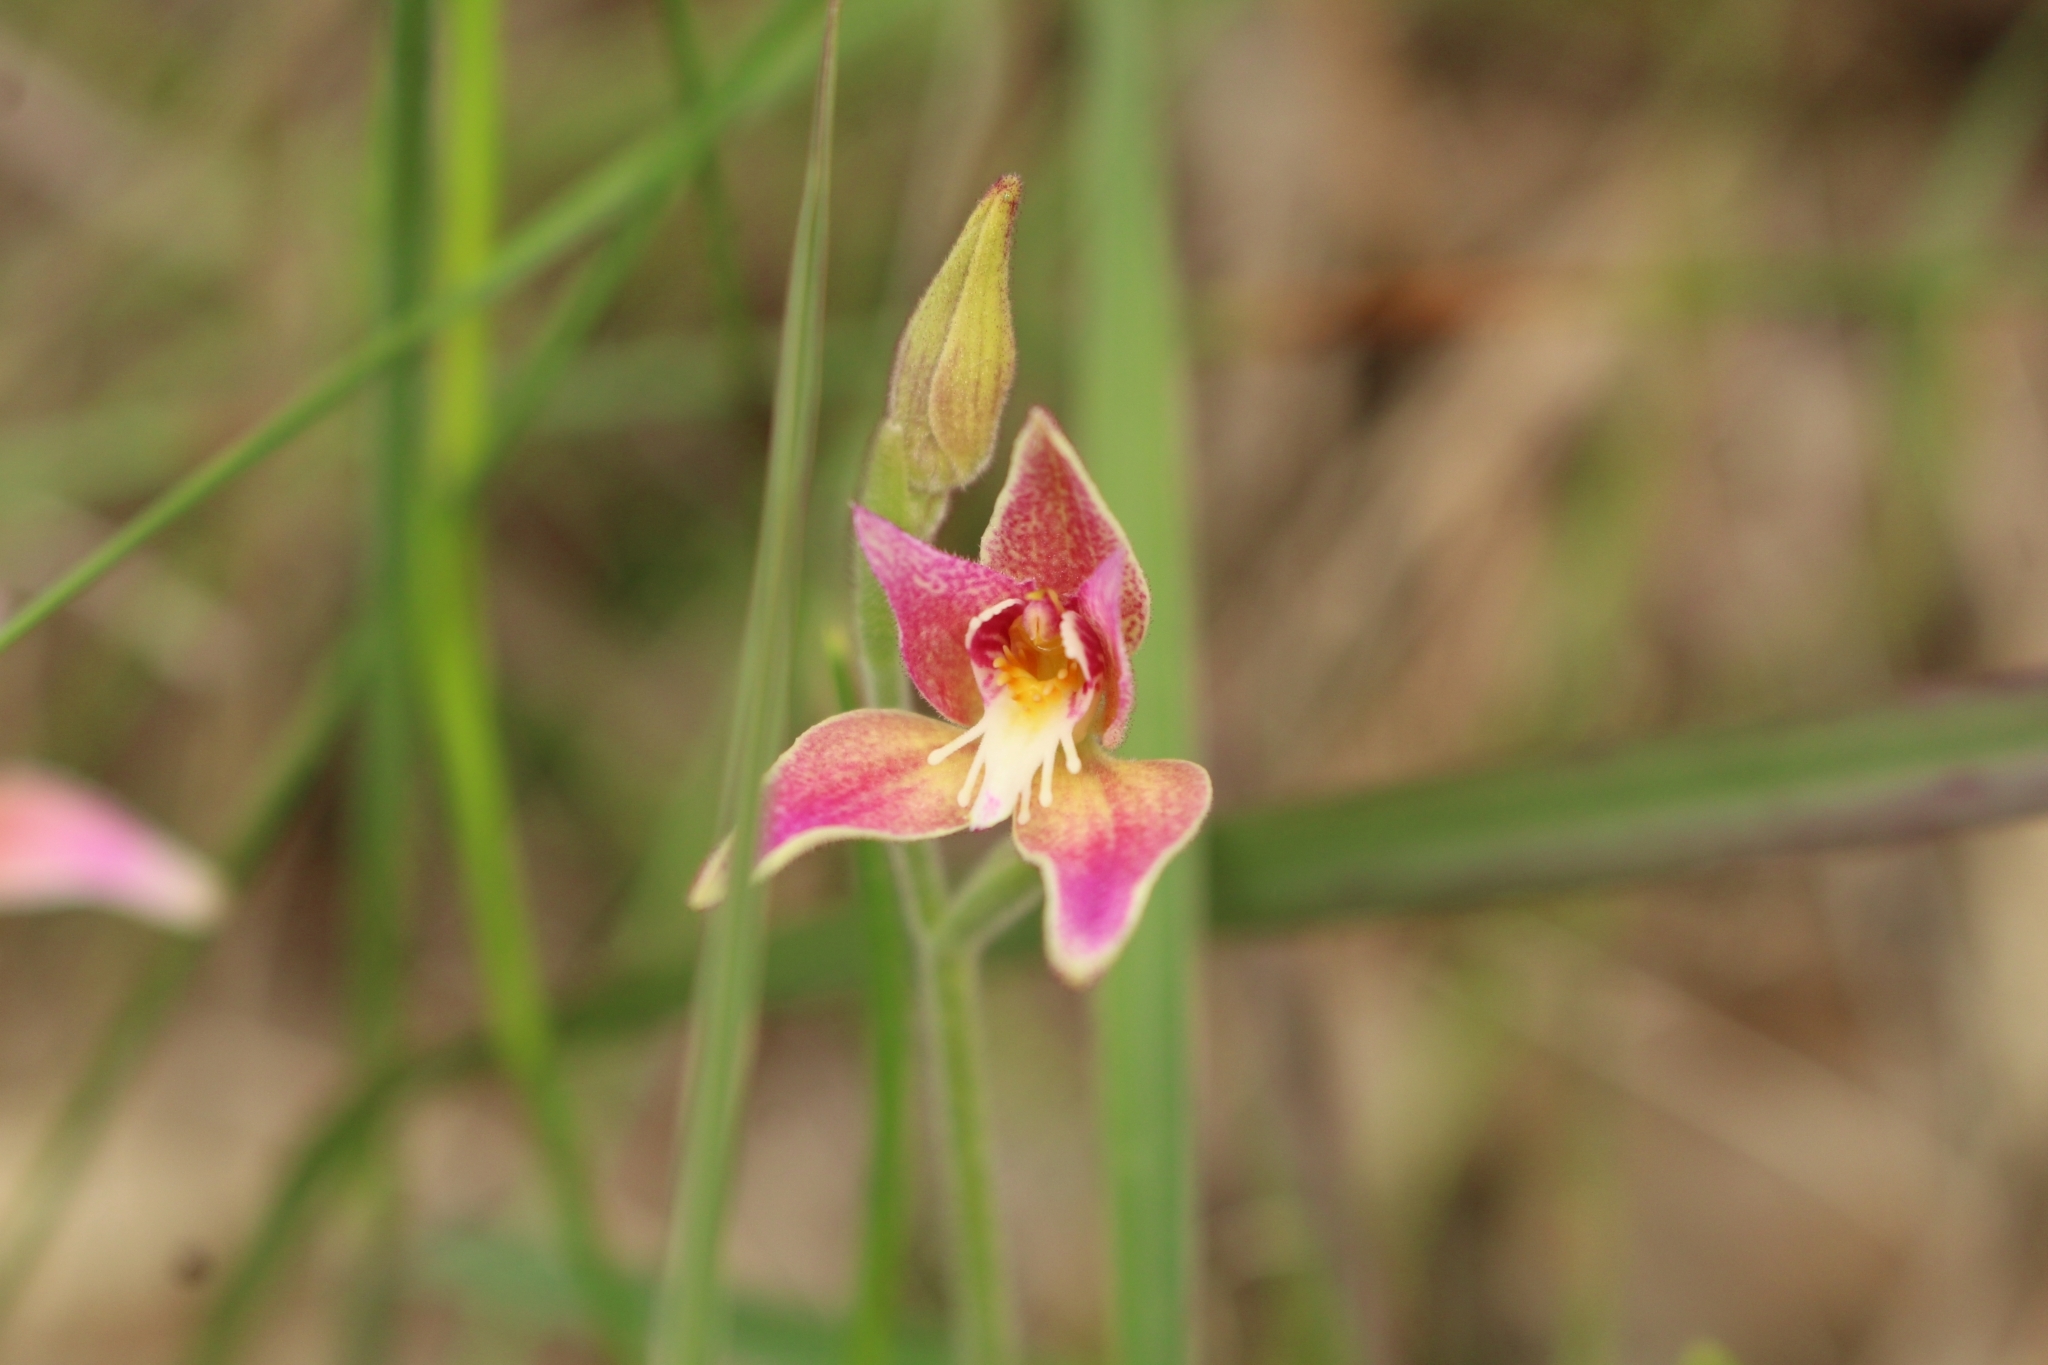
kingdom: Plantae
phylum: Tracheophyta
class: Liliopsida
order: Asparagales
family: Orchidaceae
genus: Caladenia
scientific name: Caladenia spectabilis
